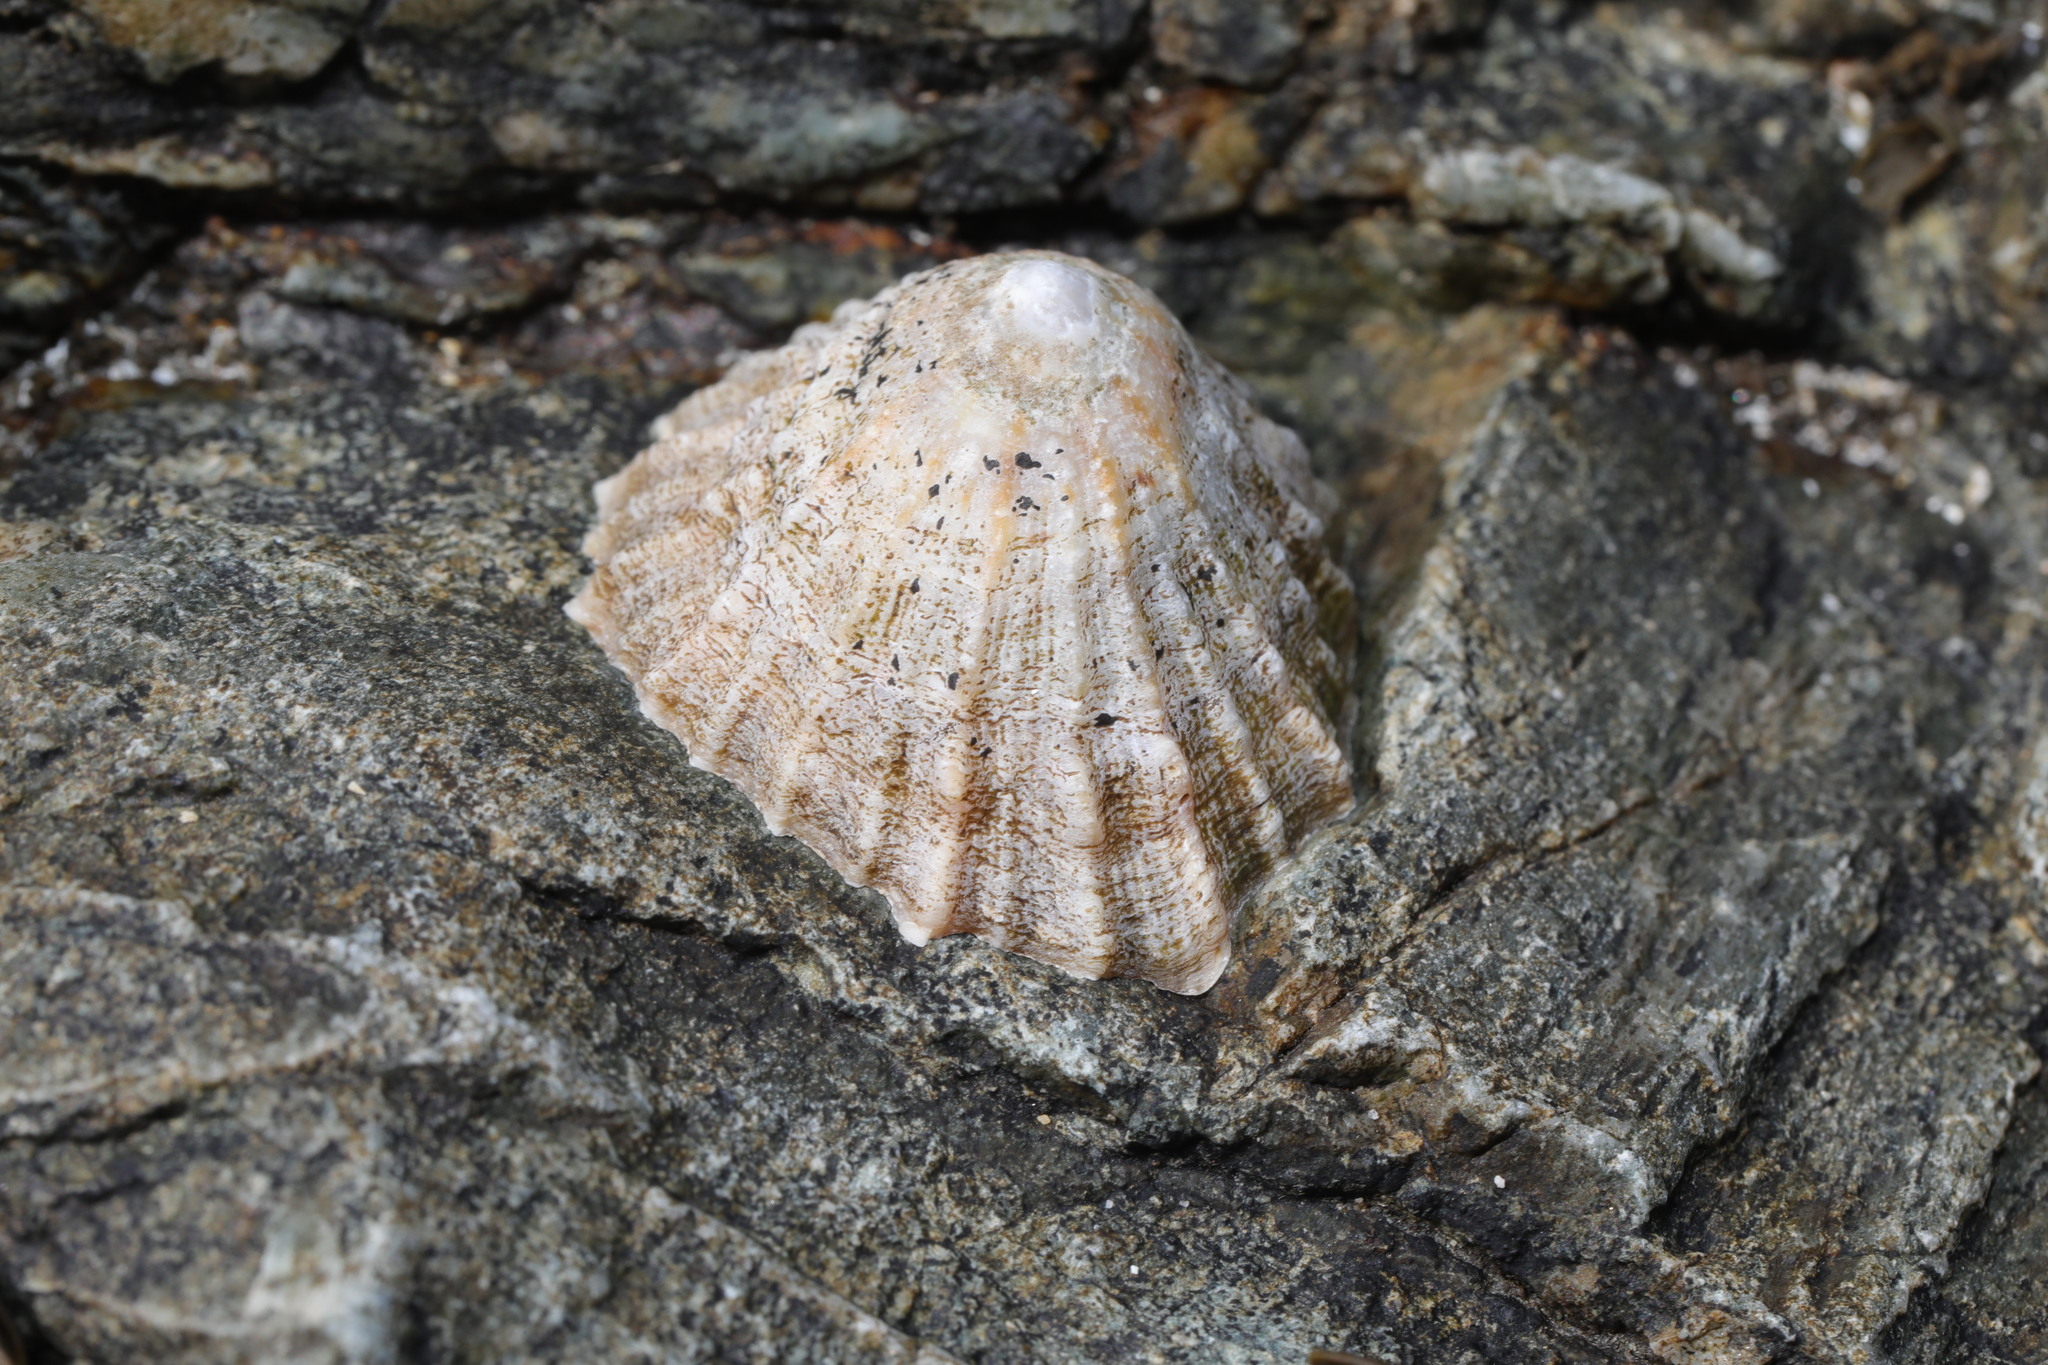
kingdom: Animalia
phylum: Mollusca
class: Gastropoda
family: Patellidae
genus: Patella
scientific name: Patella vulgata
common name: Common limpet
